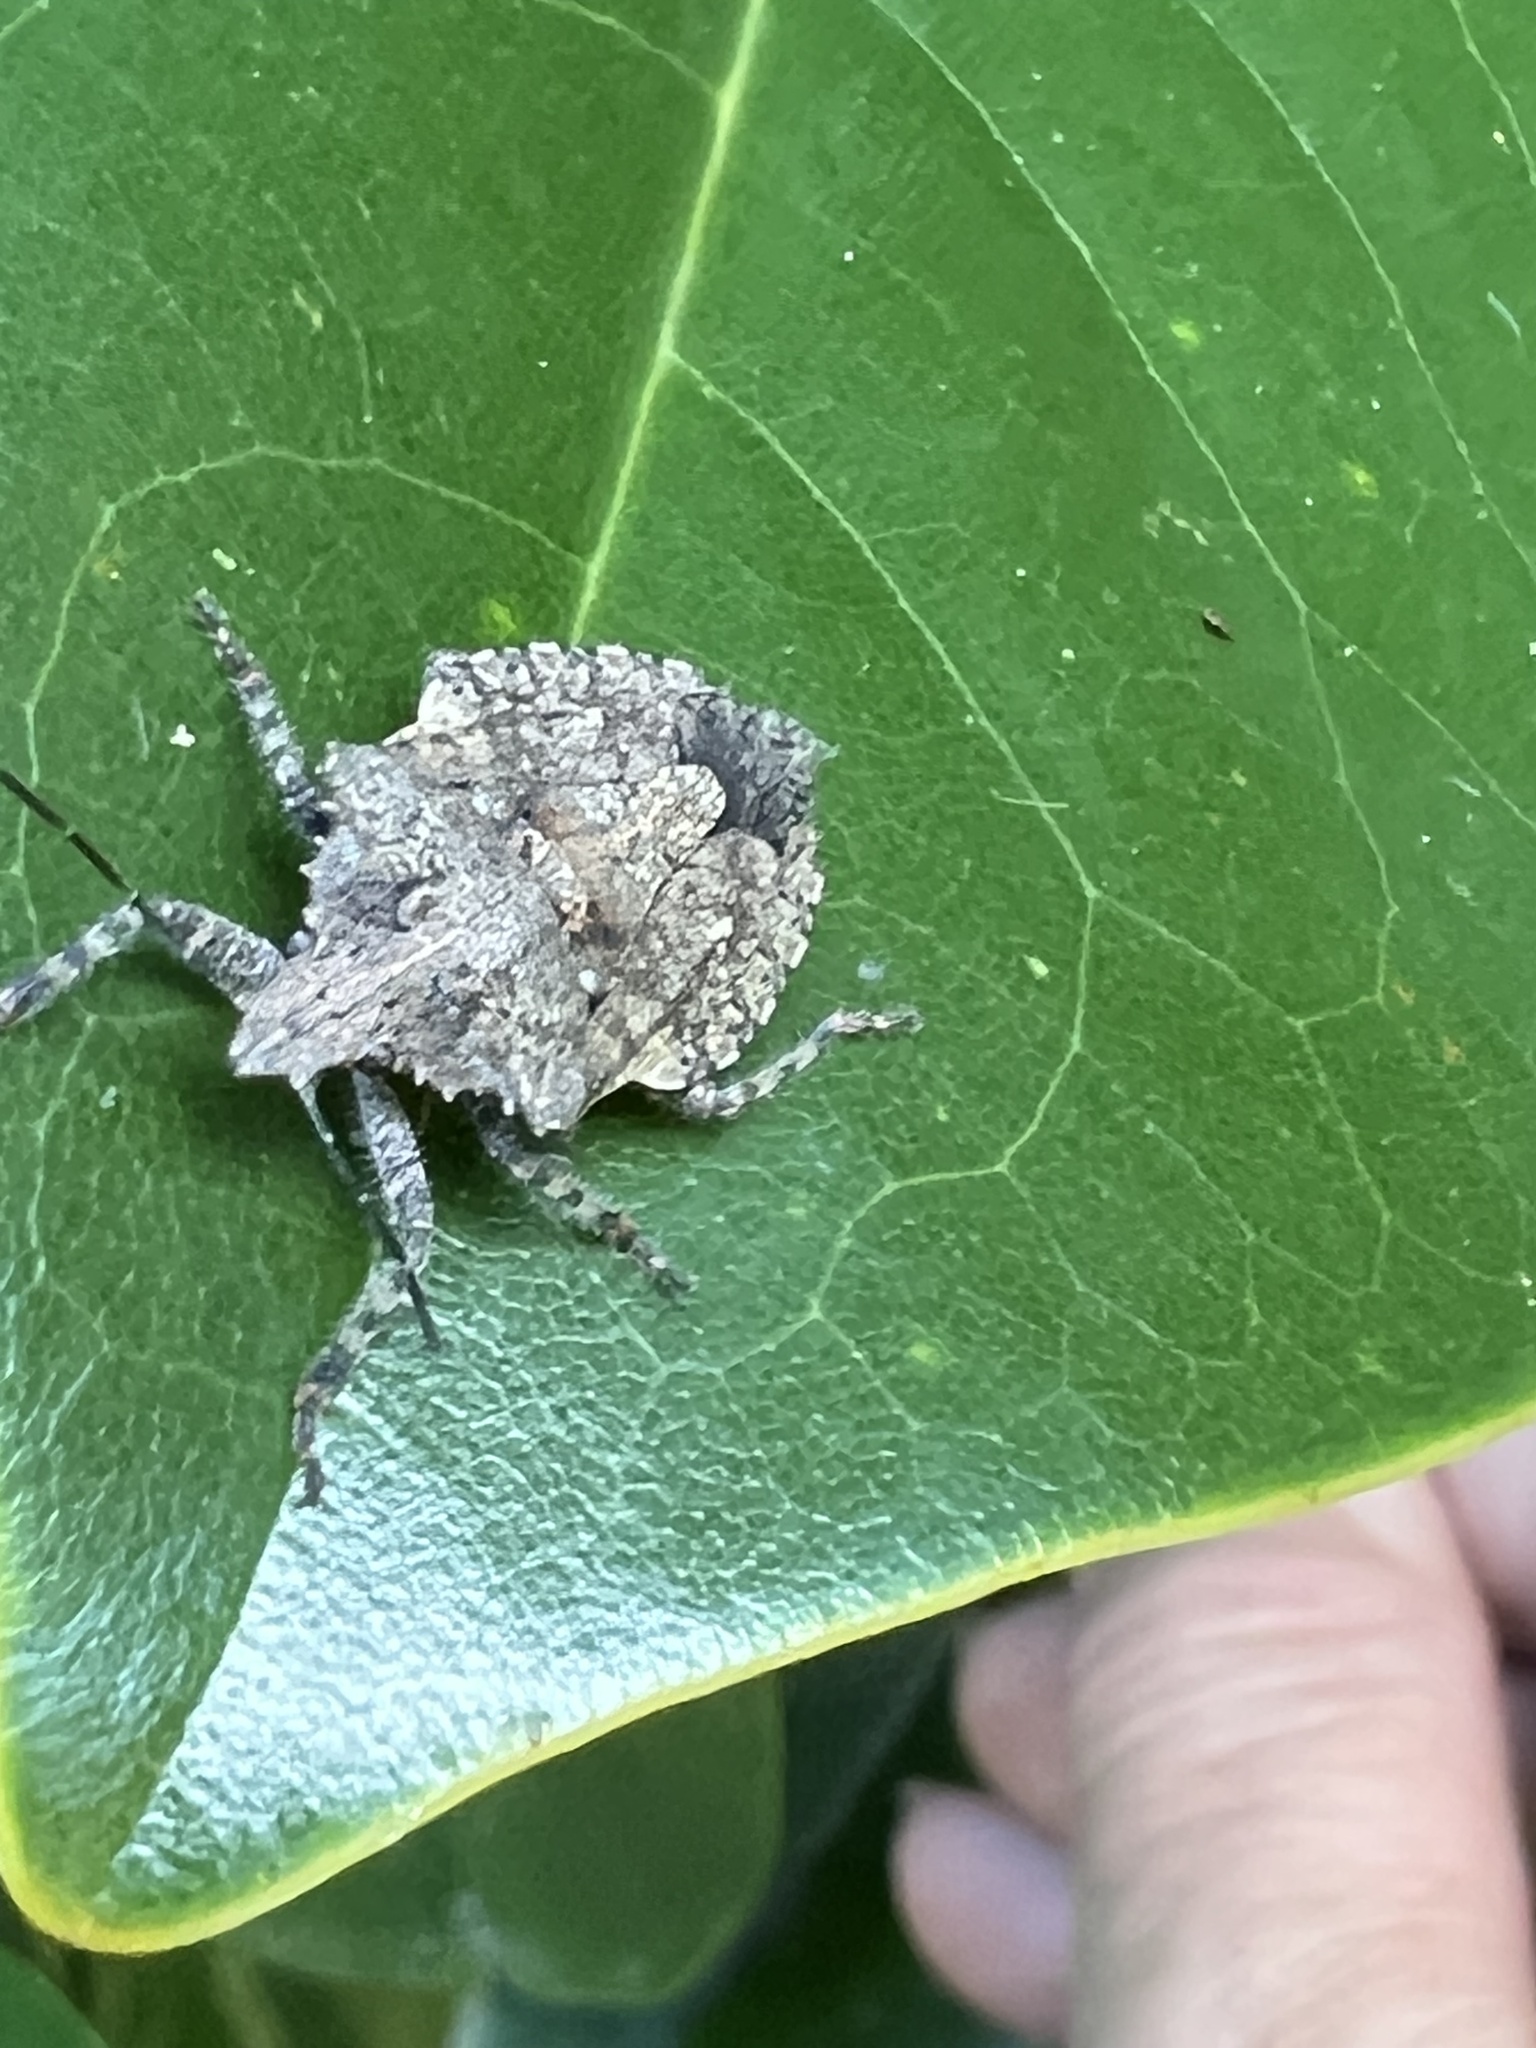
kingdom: Animalia
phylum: Arthropoda
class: Insecta
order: Hemiptera
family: Pentatomidae
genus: Brochymena
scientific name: Brochymena arborea
